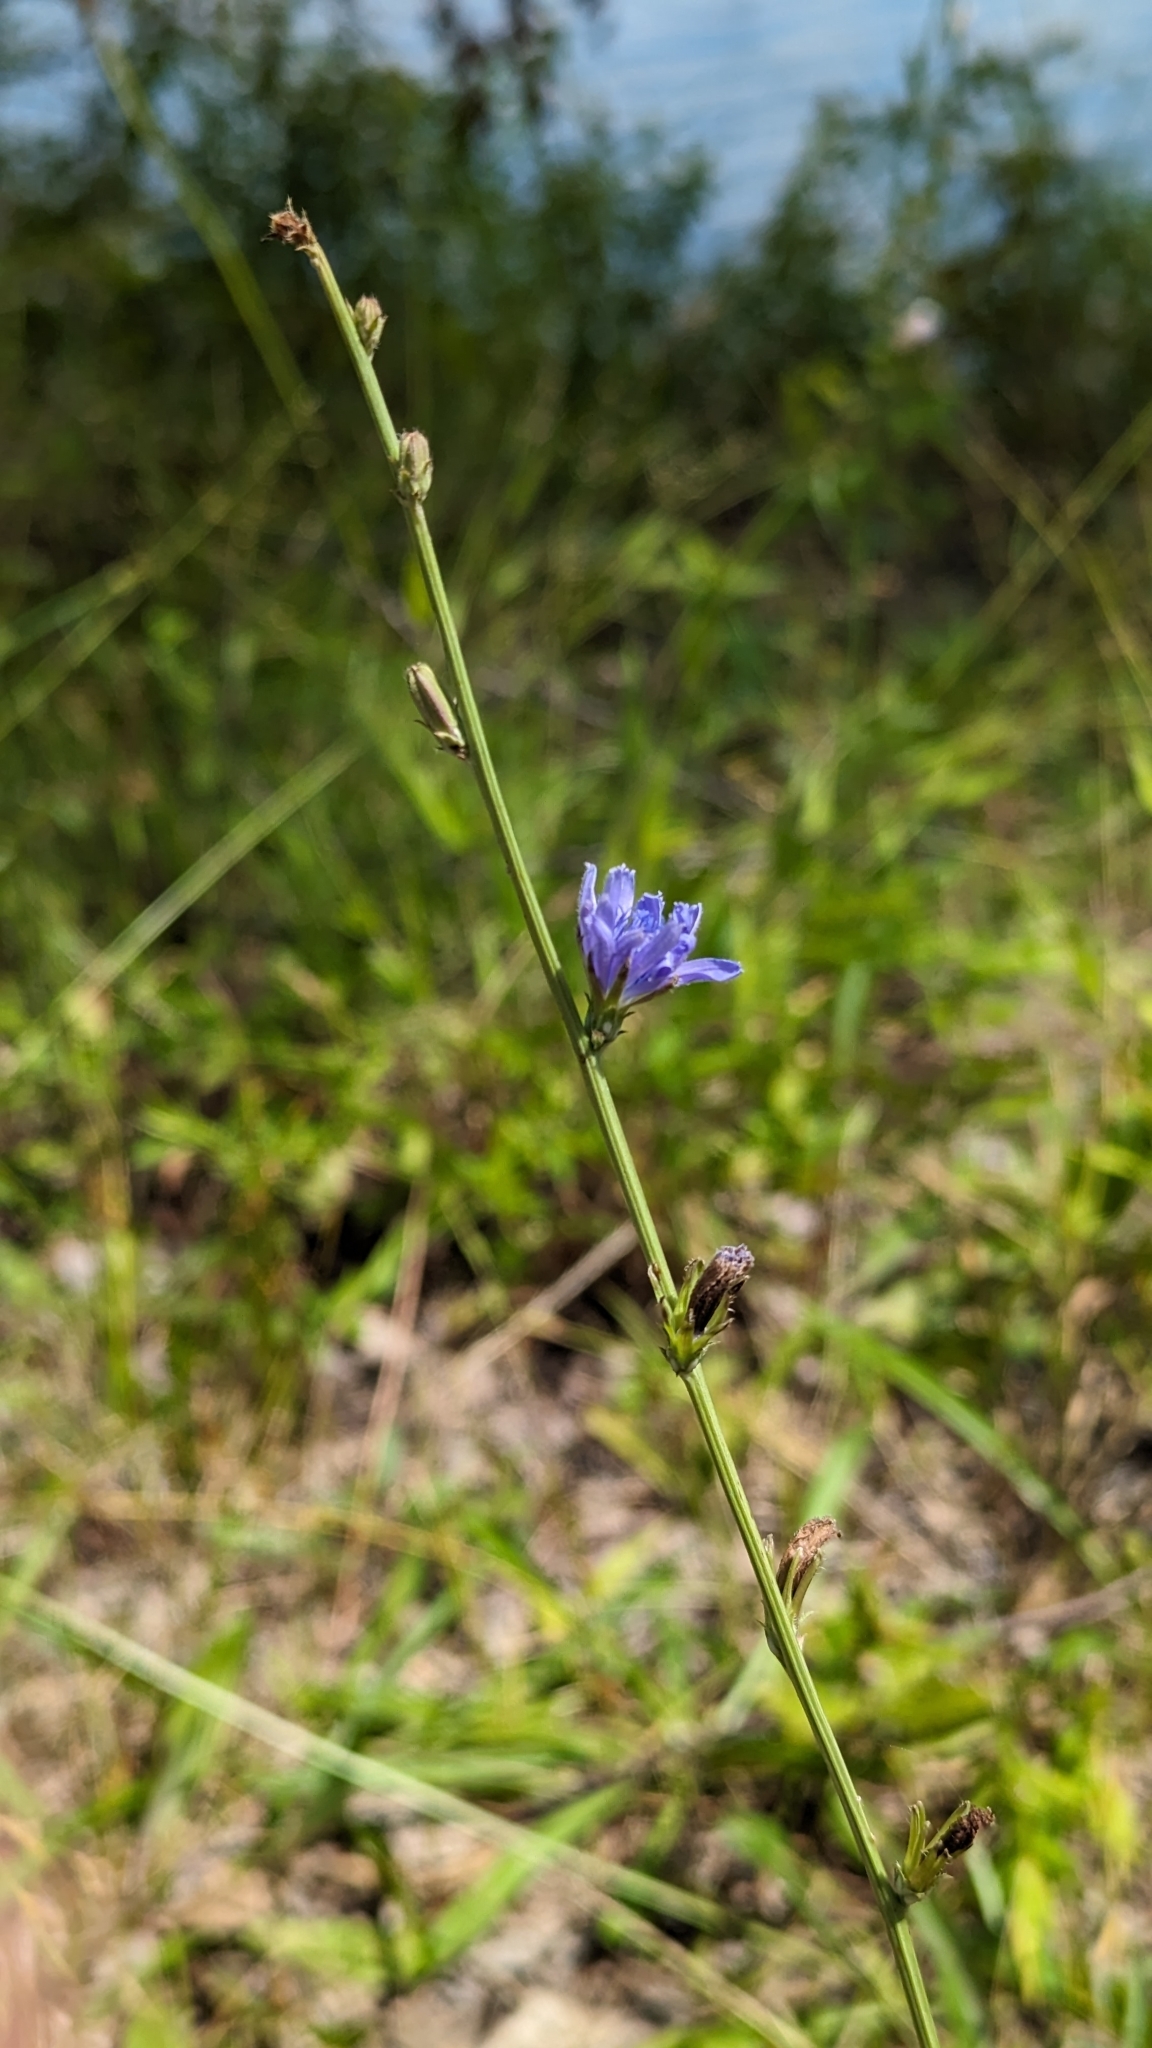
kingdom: Plantae
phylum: Tracheophyta
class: Magnoliopsida
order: Asterales
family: Asteraceae
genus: Cichorium
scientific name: Cichorium intybus
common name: Chicory
